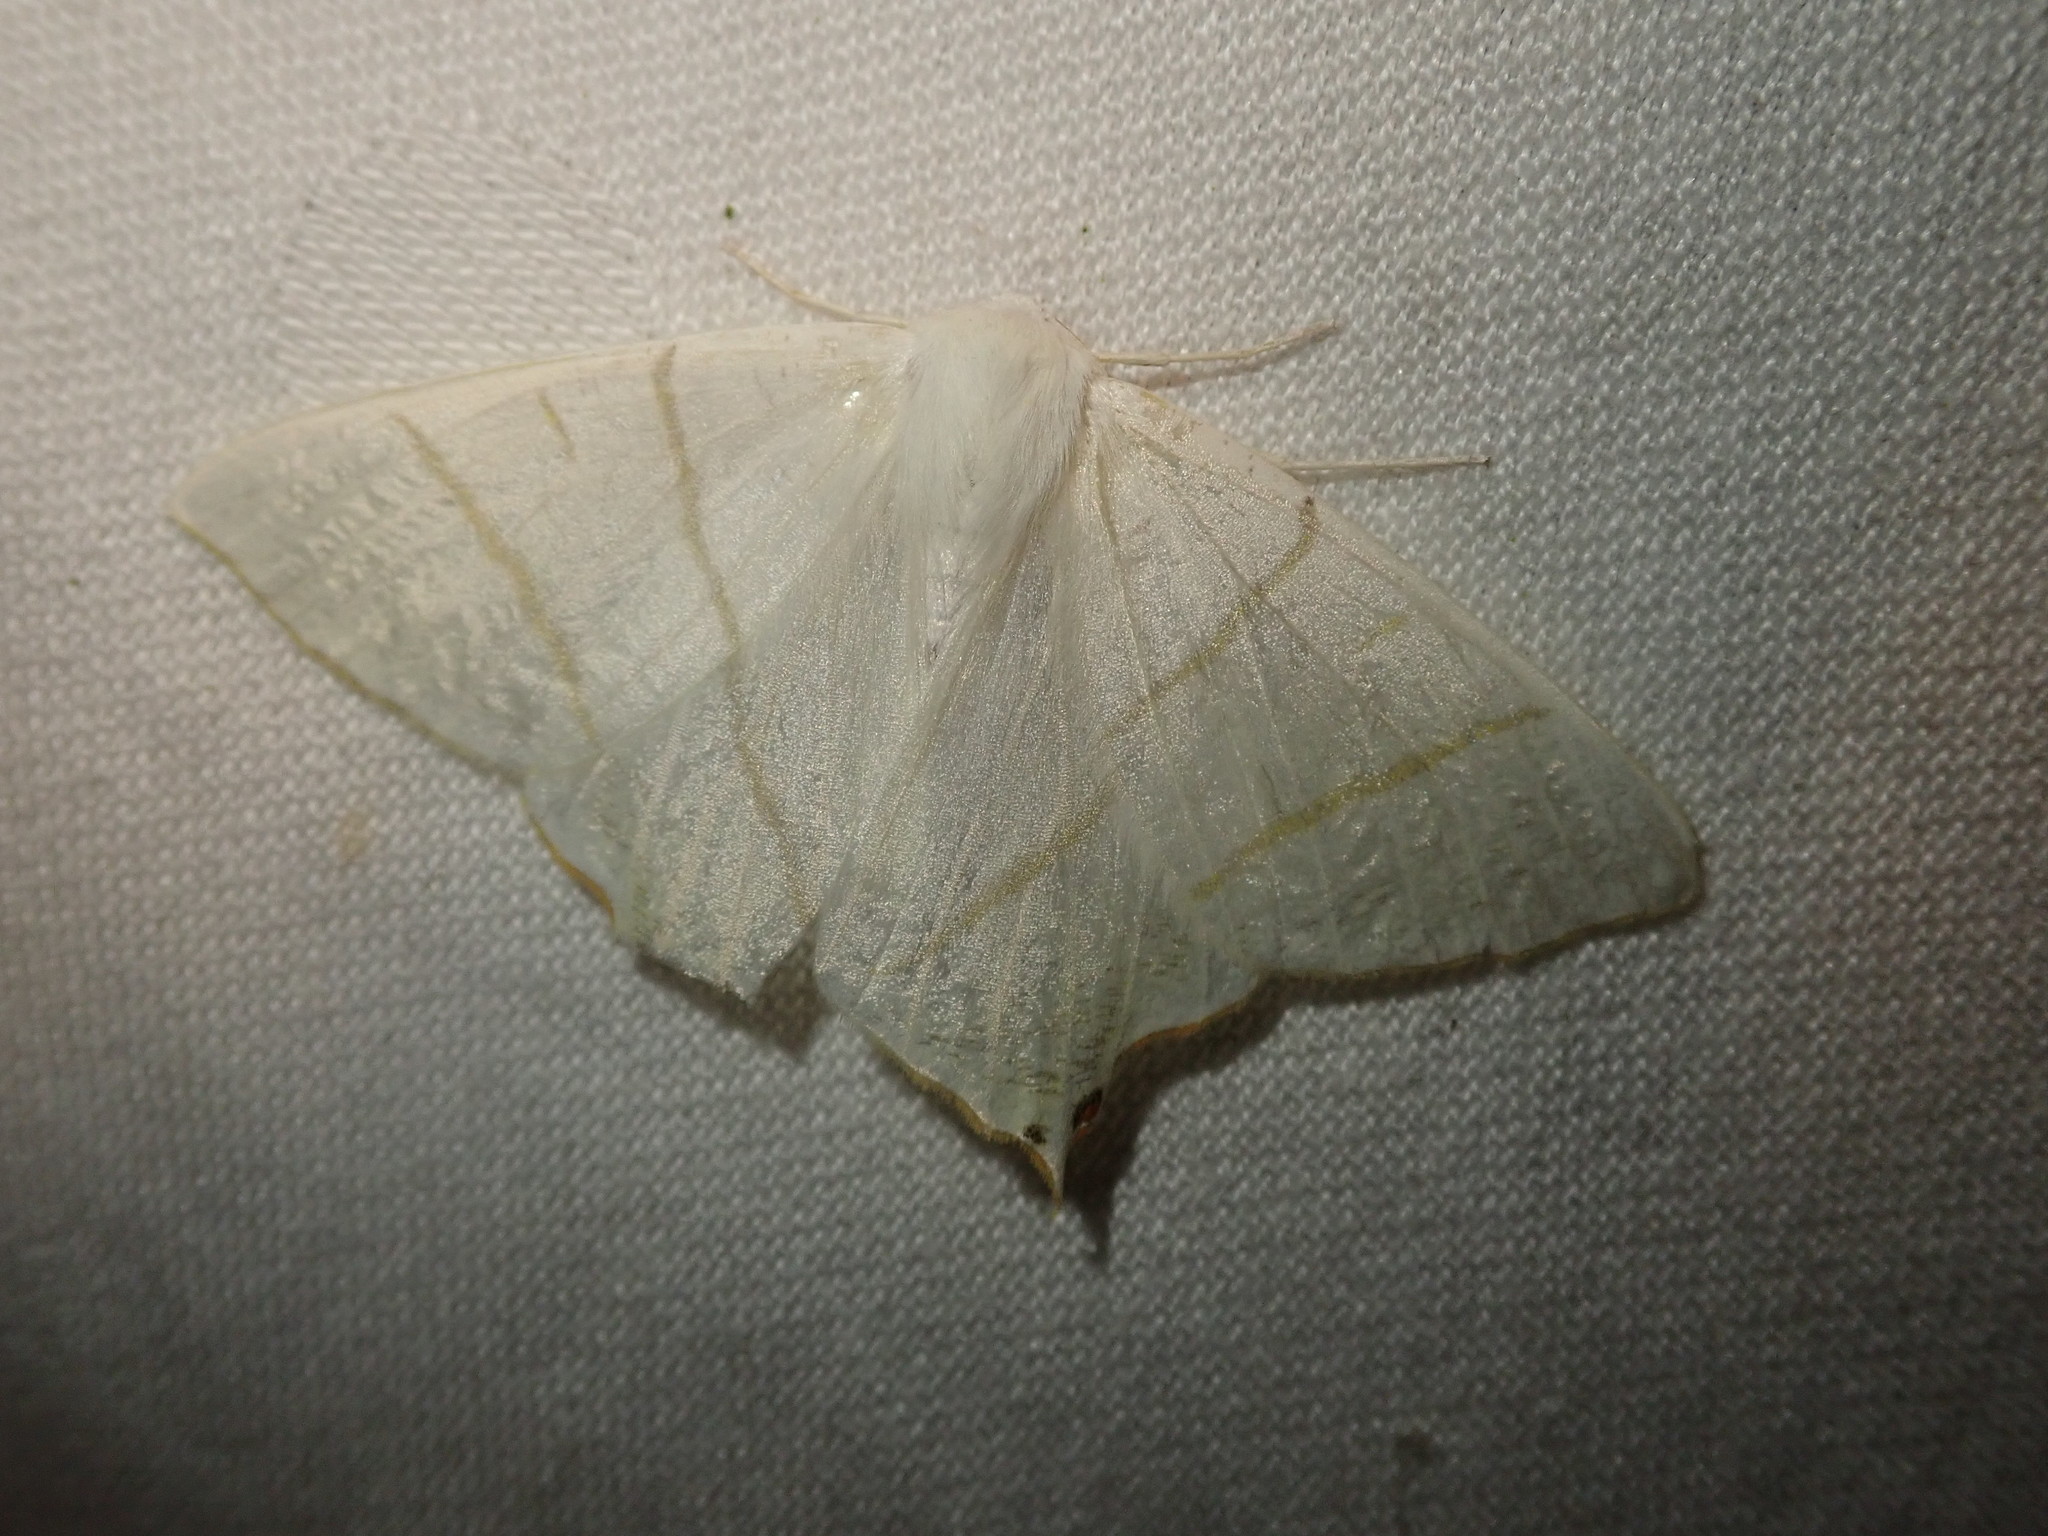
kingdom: Animalia
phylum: Arthropoda
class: Insecta
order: Lepidoptera
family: Geometridae
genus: Ourapteryx
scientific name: Ourapteryx sambucaria
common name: Swallow-tailed moth
